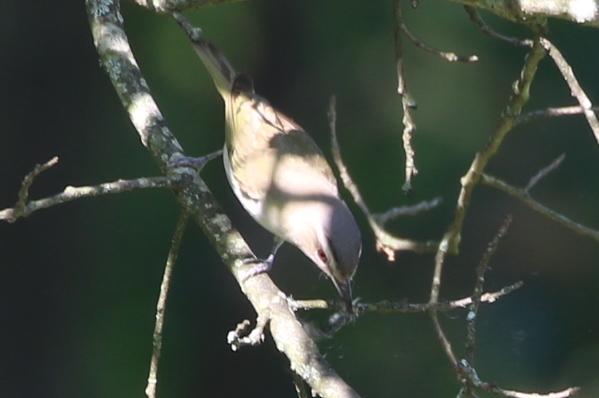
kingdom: Animalia
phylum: Chordata
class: Aves
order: Passeriformes
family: Vireonidae
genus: Vireo
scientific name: Vireo olivaceus
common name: Red-eyed vireo
